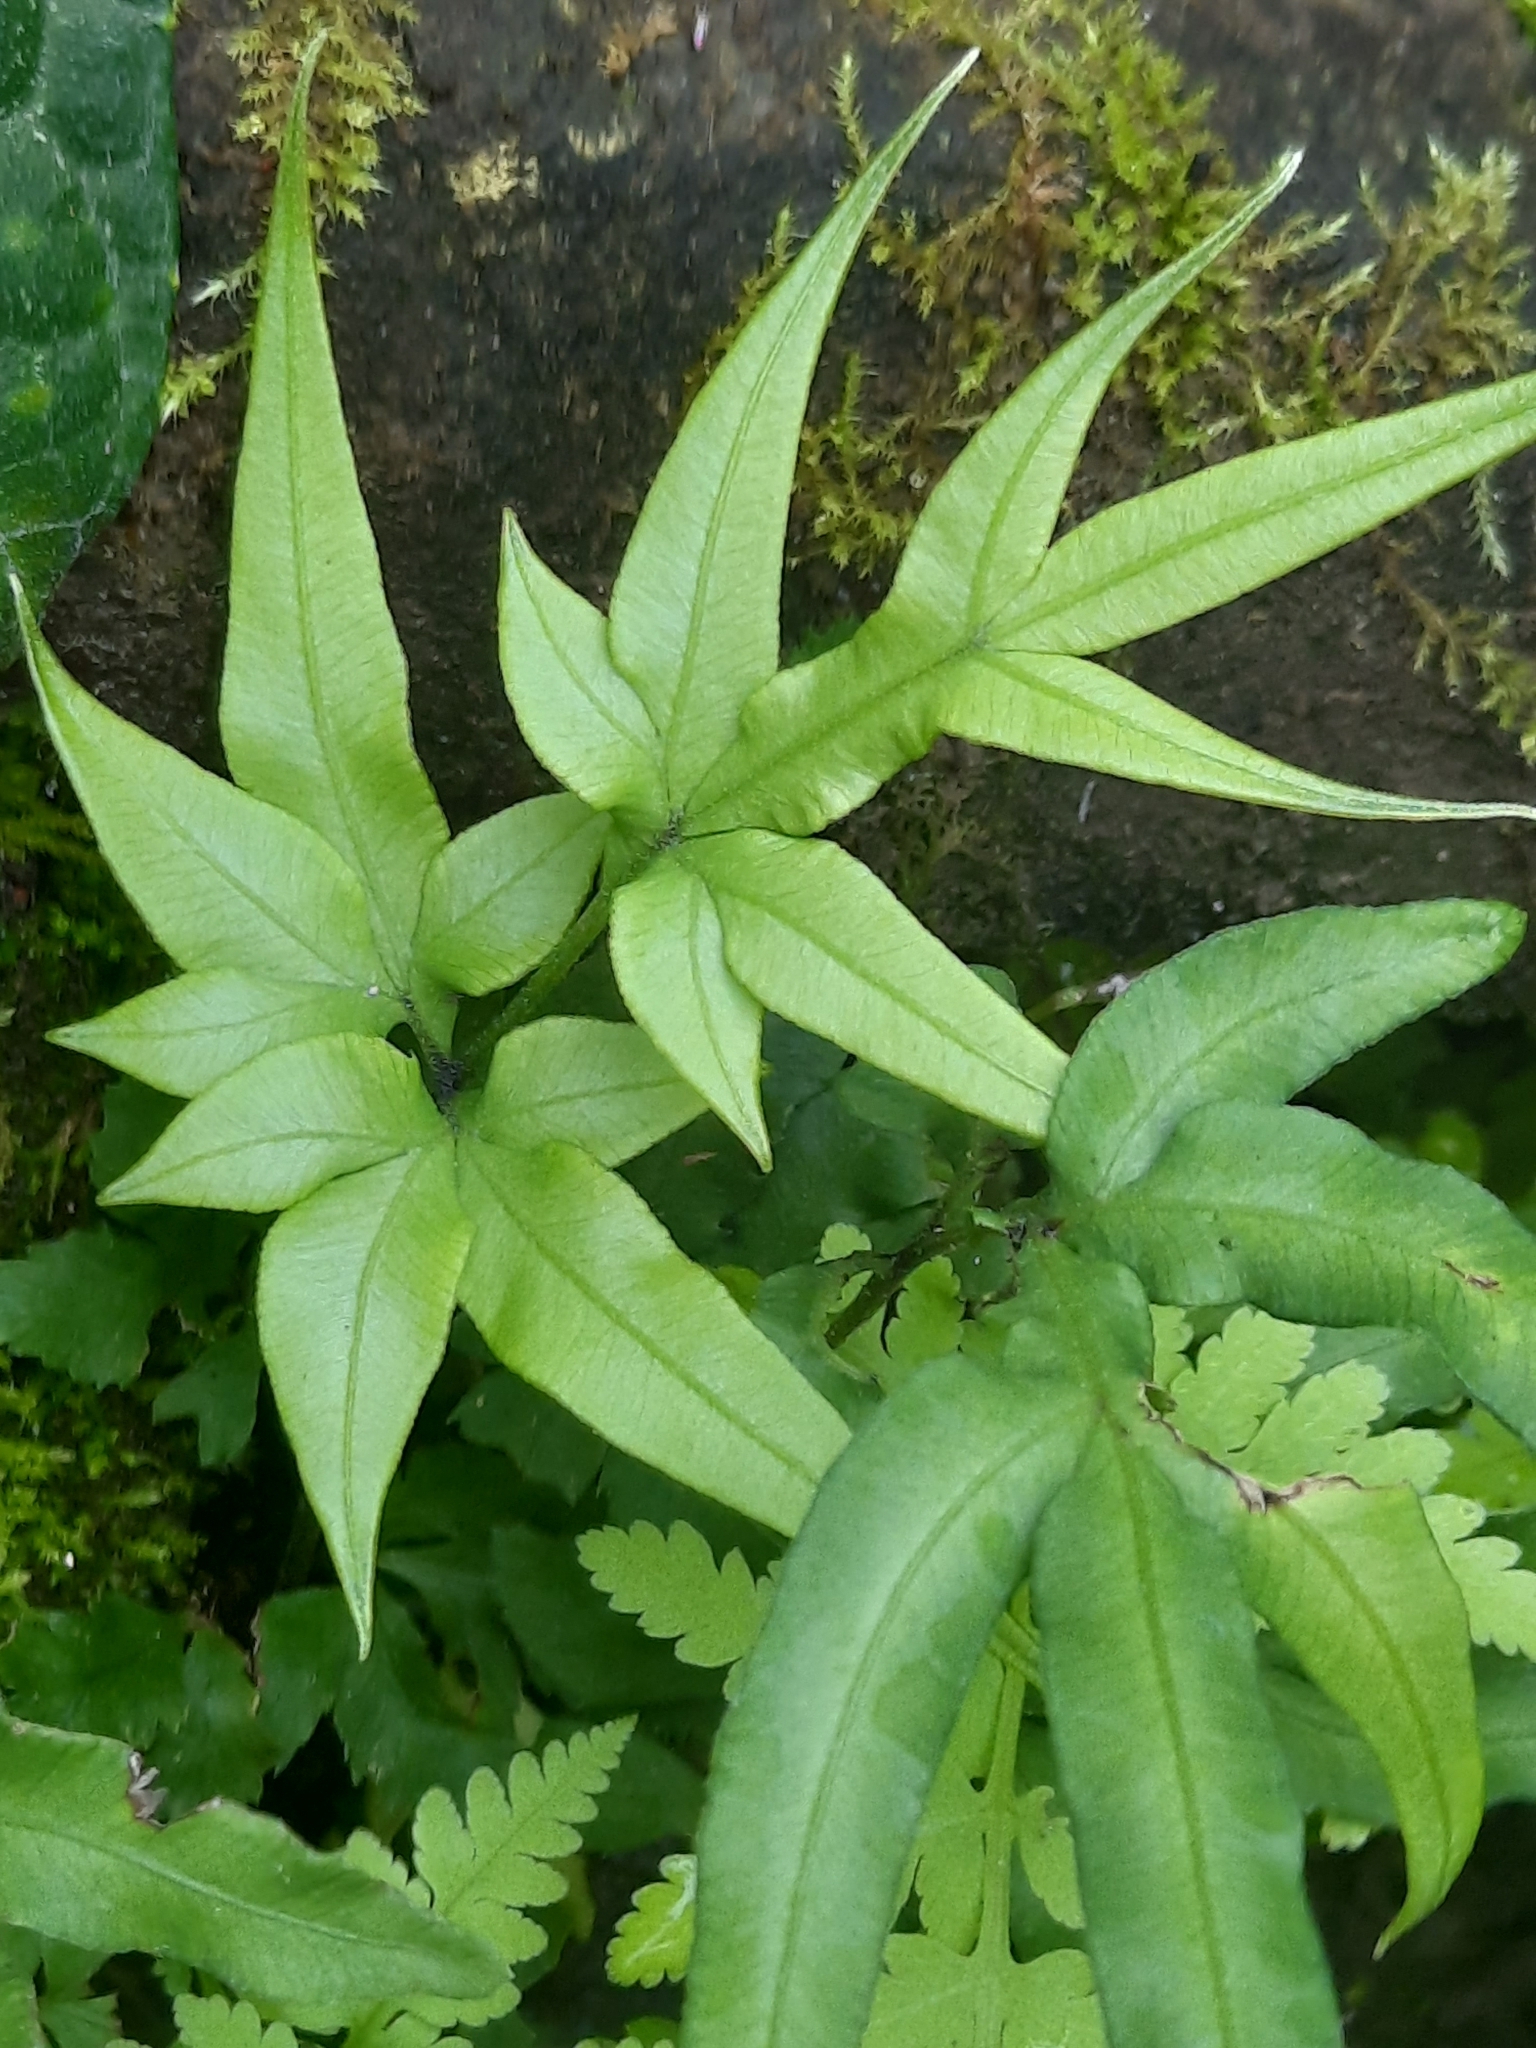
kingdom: Plantae
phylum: Tracheophyta
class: Polypodiopsida
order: Polypodiales
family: Pteridaceae
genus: Pteris
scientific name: Pteris multifida
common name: Spider brake
